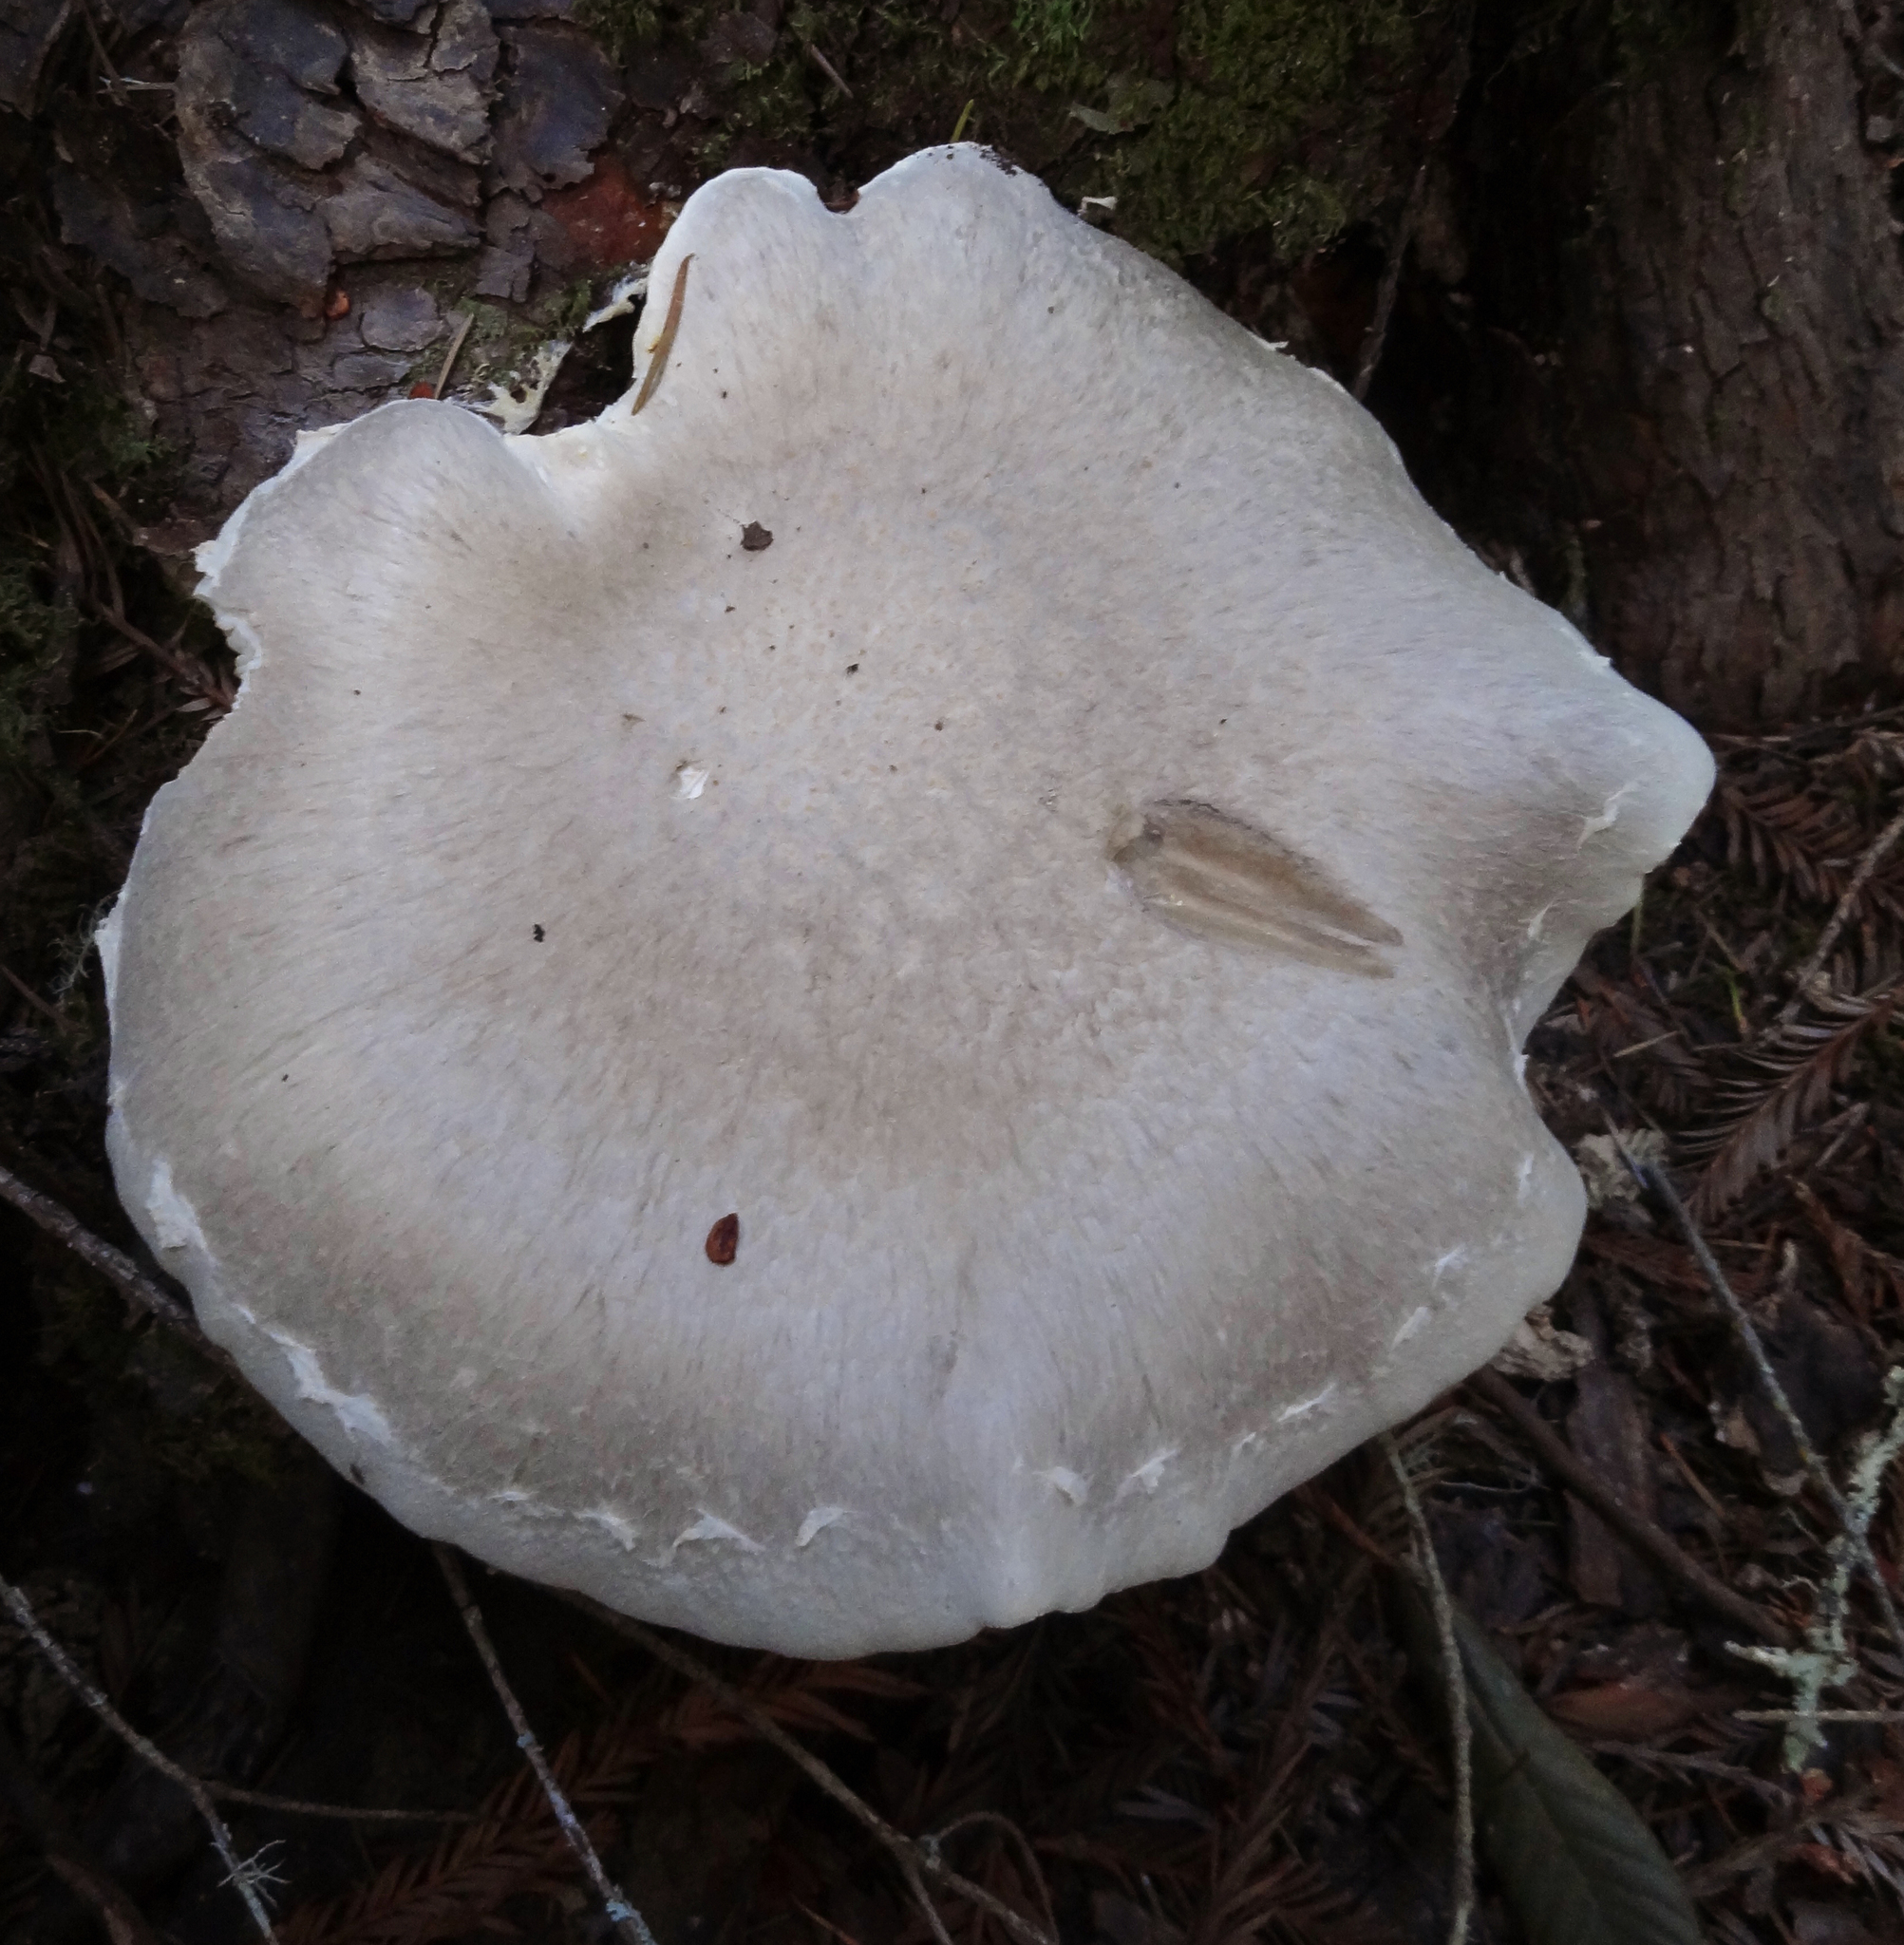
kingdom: Fungi
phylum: Basidiomycota
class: Agaricomycetes
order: Agaricales
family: Pleurotaceae
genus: Pleurotus
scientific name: Pleurotus dryinus
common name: Veiled oyster
